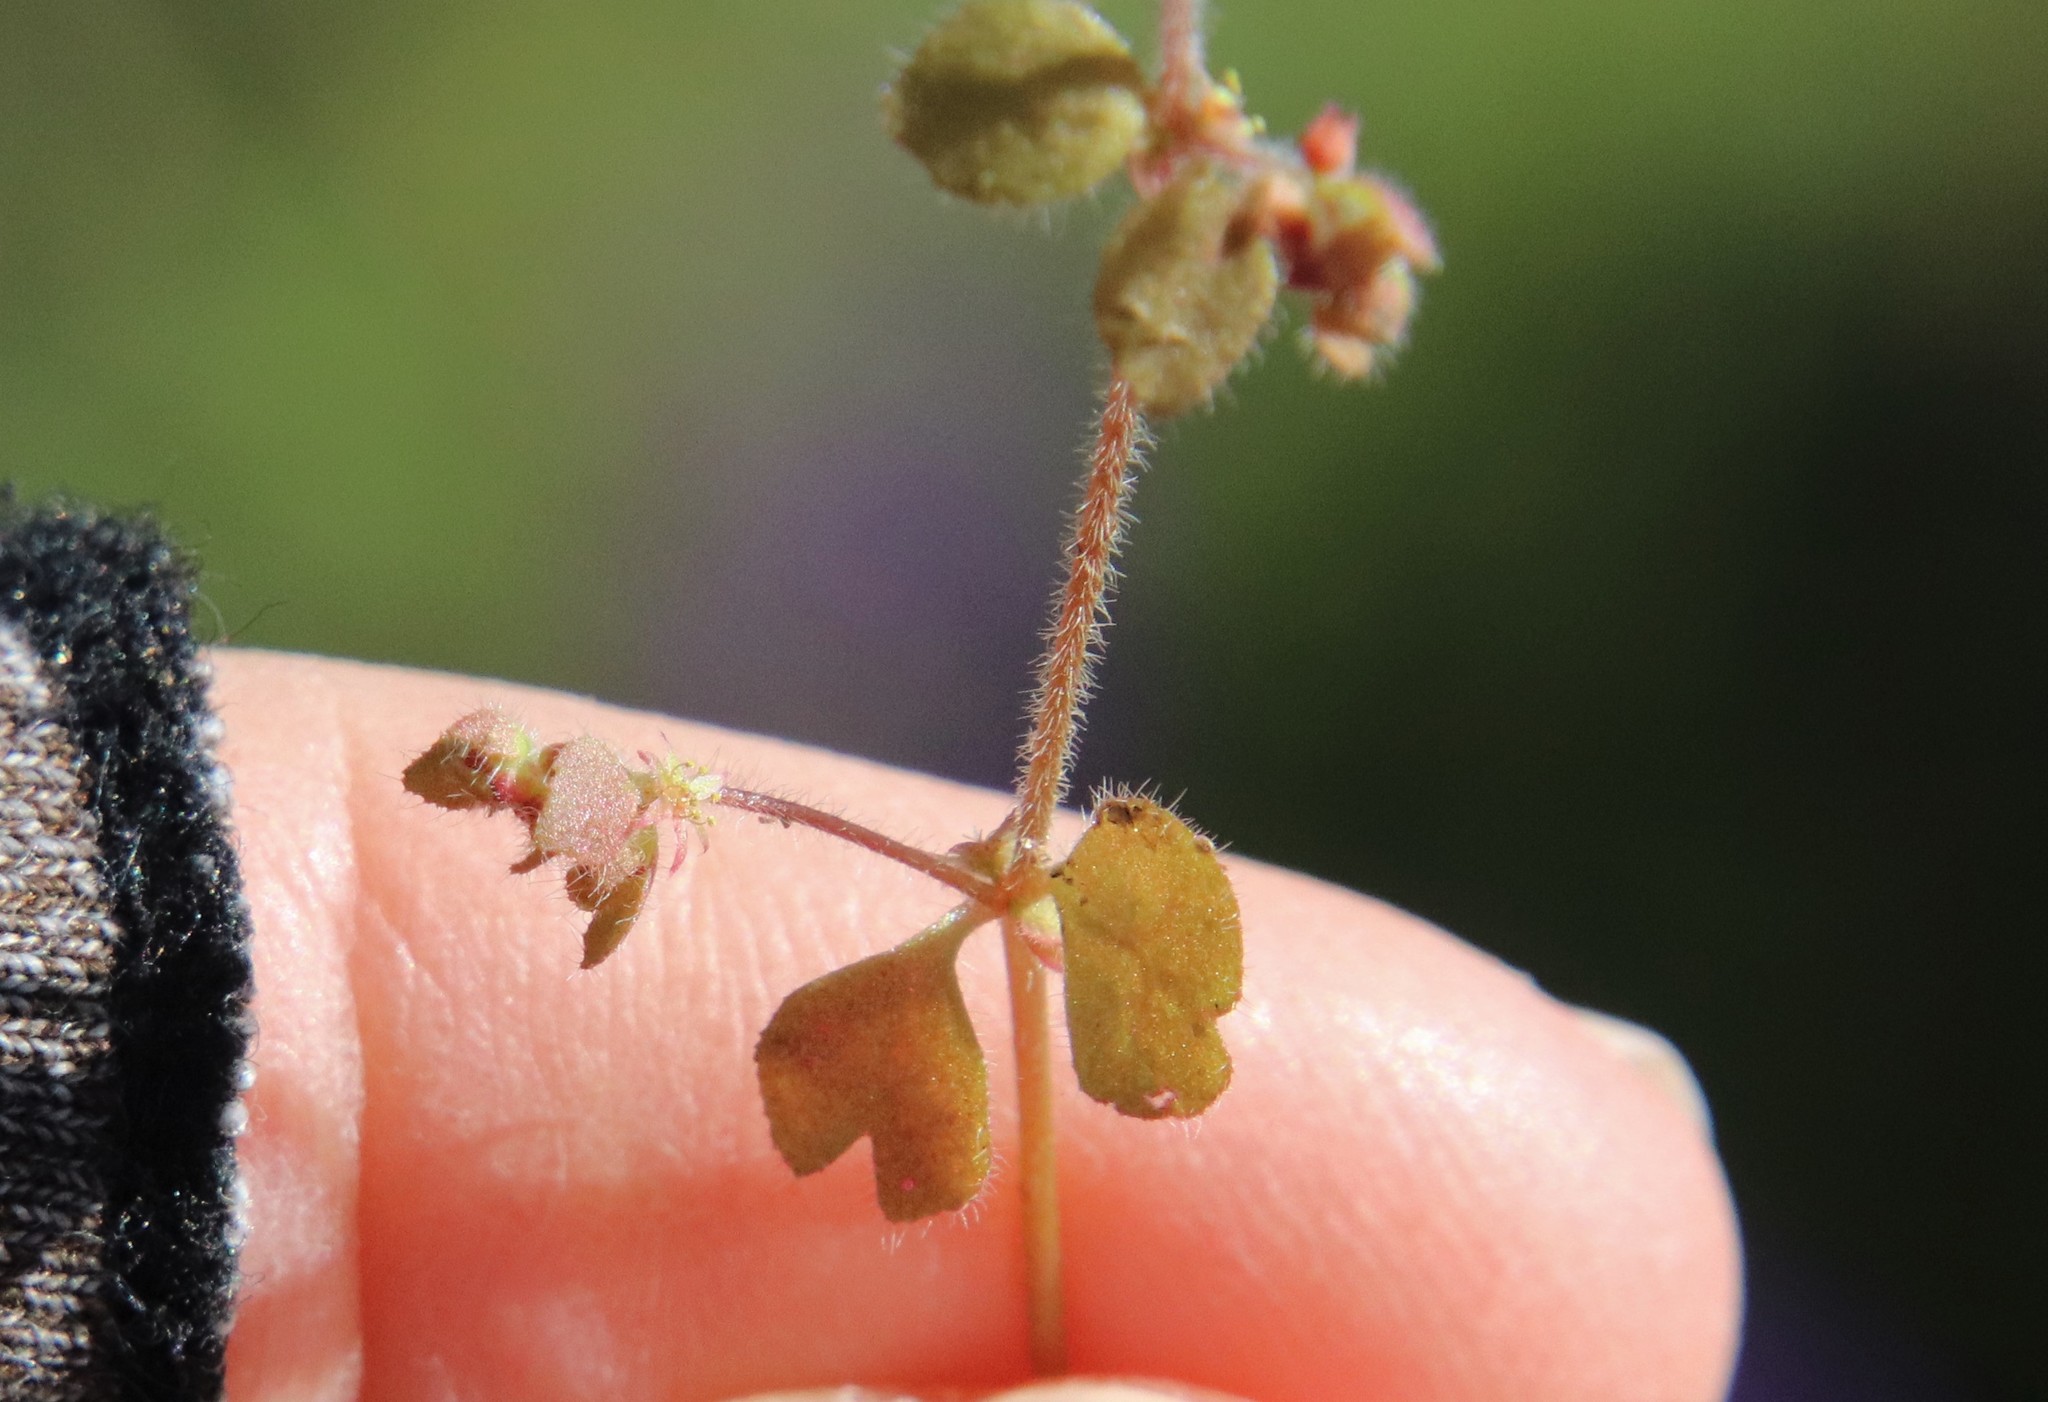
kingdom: Plantae
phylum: Tracheophyta
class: Magnoliopsida
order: Caryophyllales
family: Polygonaceae
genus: Pterostegia
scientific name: Pterostegia drymarioides
